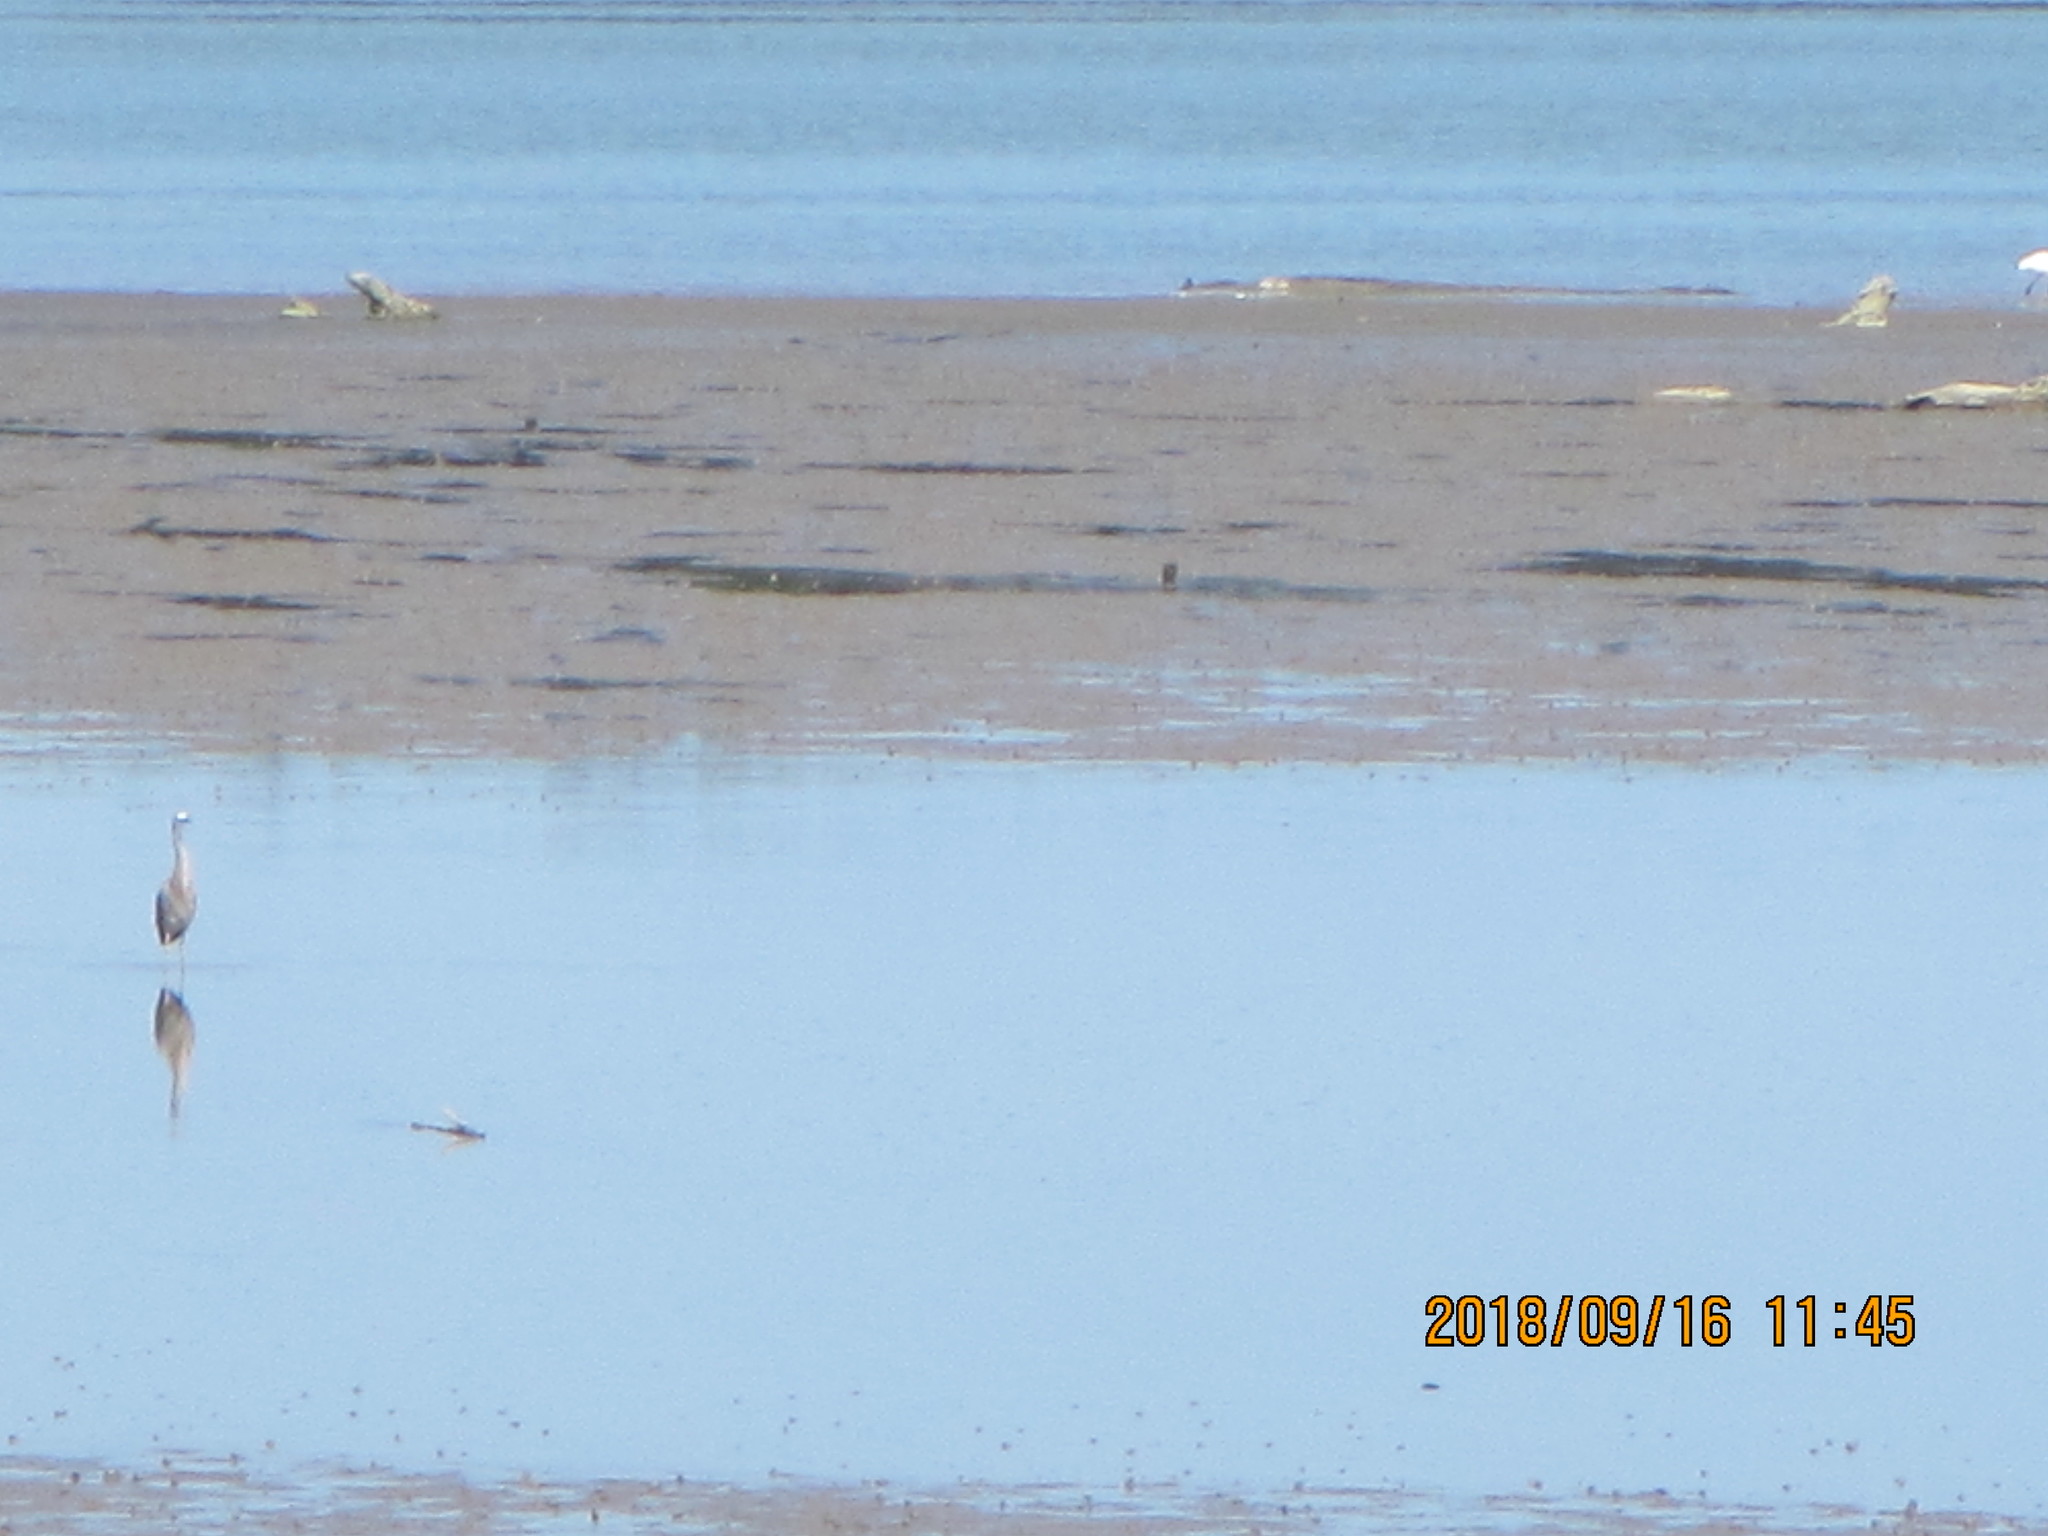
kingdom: Animalia
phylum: Chordata
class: Aves
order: Pelecaniformes
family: Ardeidae
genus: Egretta
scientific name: Egretta novaehollandiae
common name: White-faced heron
